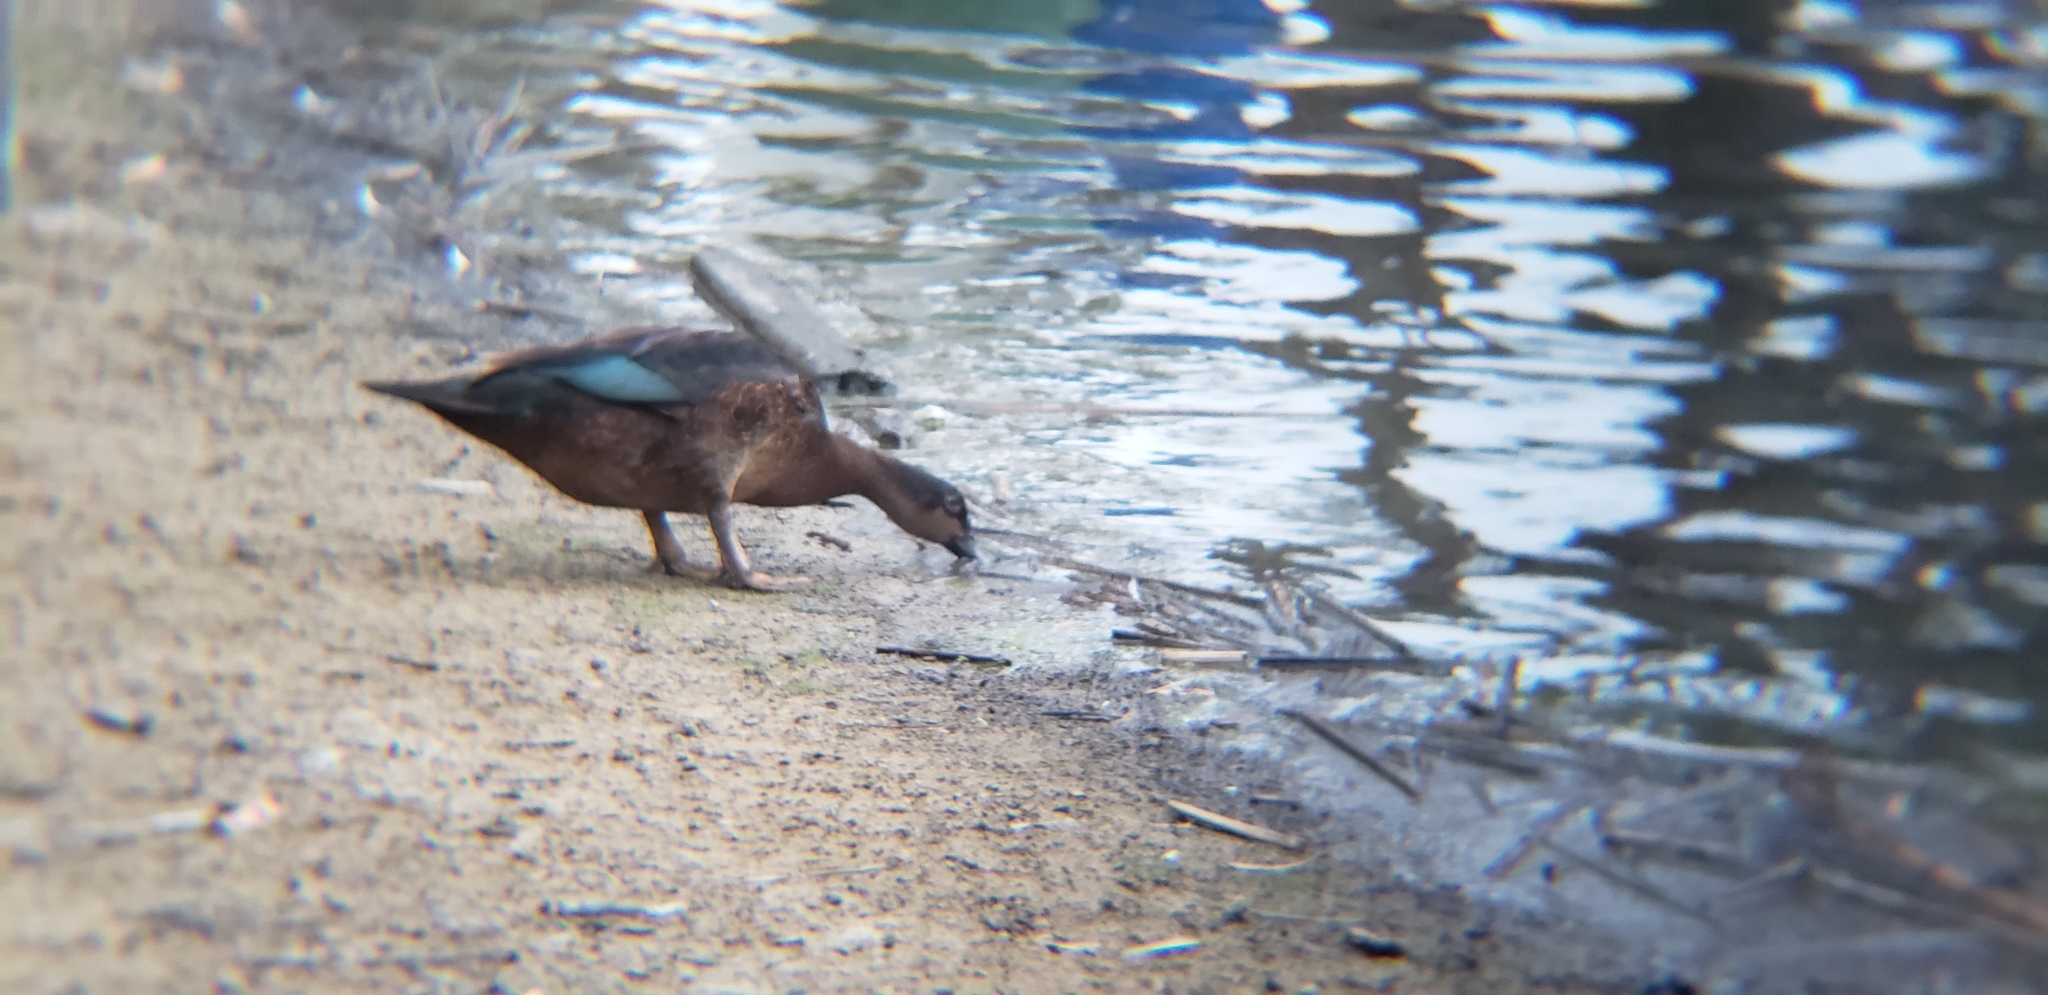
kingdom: Animalia
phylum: Chordata
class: Aves
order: Anseriformes
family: Anatidae
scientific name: Anatidae
